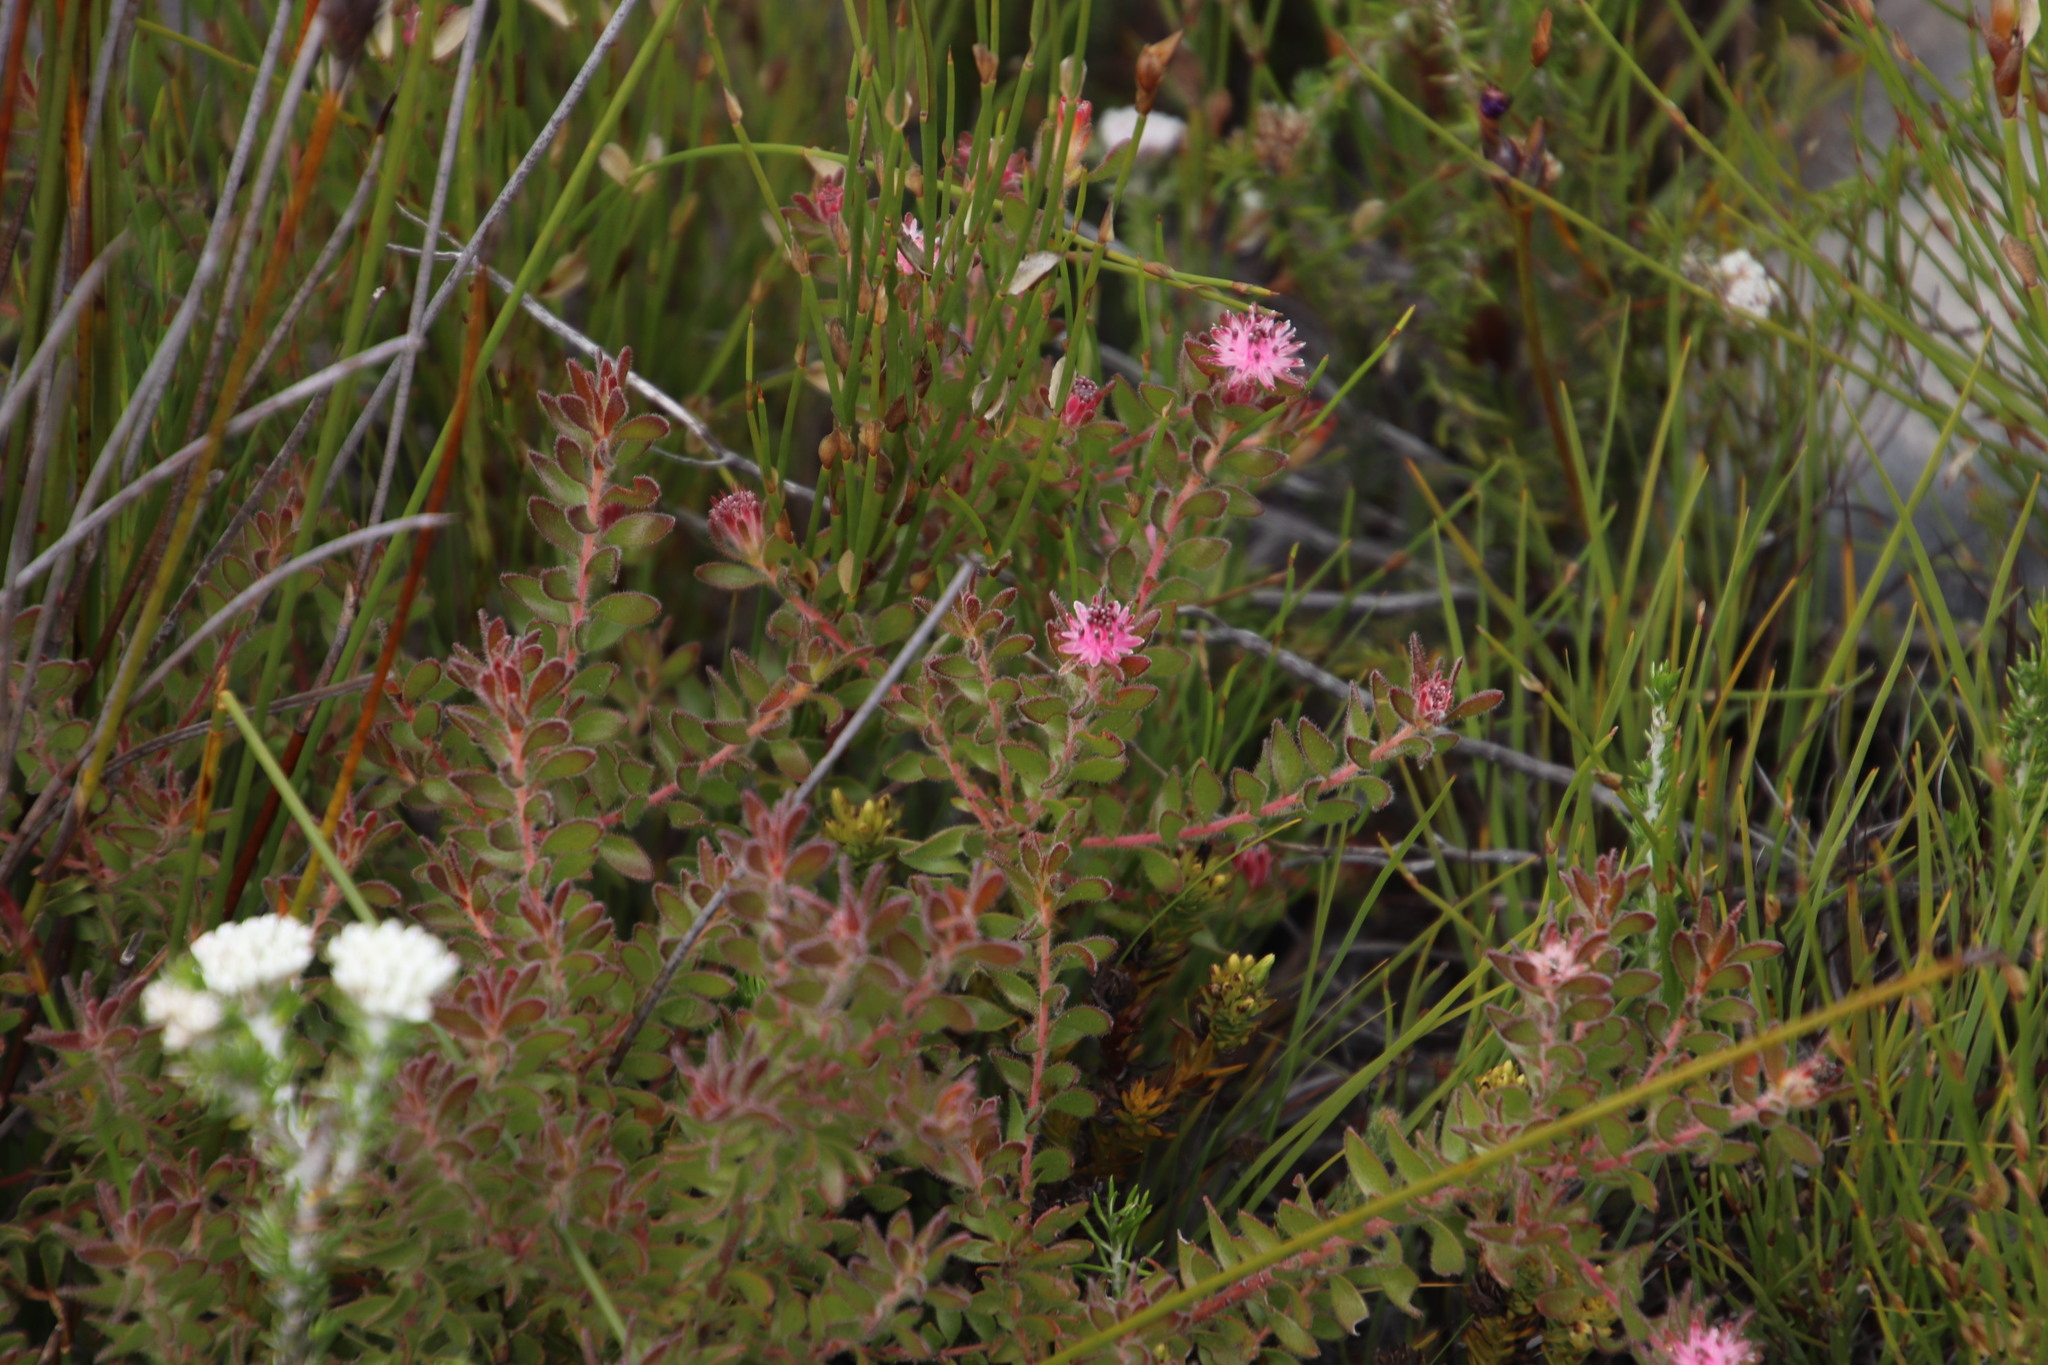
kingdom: Plantae
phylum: Tracheophyta
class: Magnoliopsida
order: Proteales
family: Proteaceae
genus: Diastella
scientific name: Diastella divaricata
